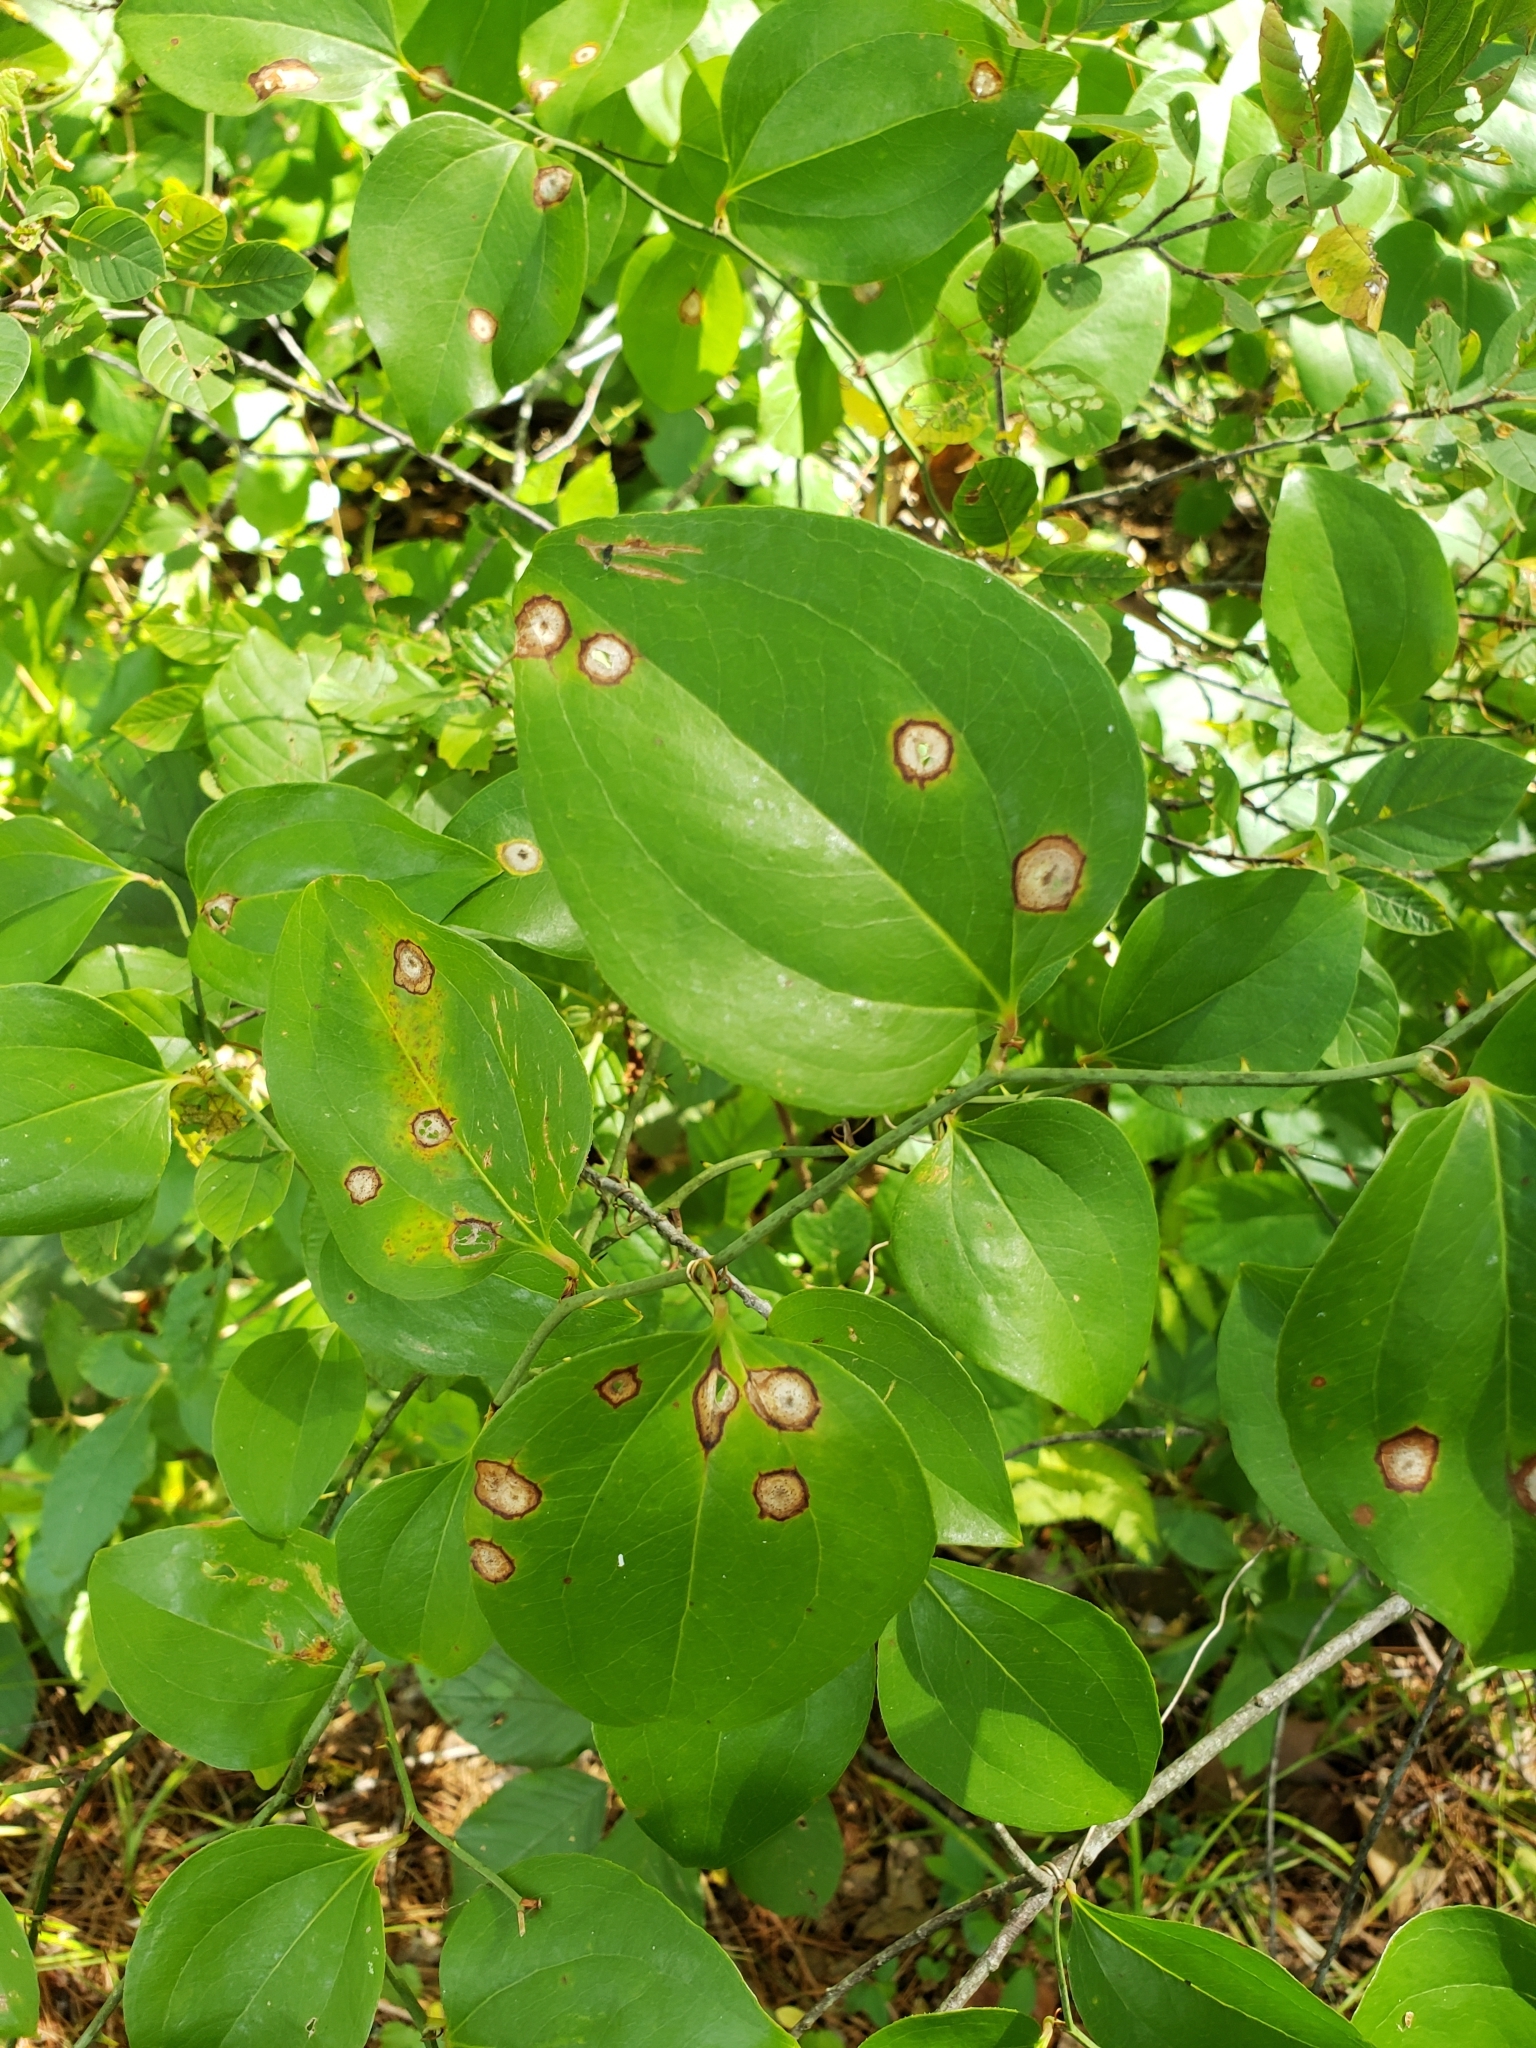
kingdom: Animalia
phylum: Arthropoda
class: Insecta
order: Diptera
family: Cecidomyiidae
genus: Meunieriella
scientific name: Meunieriella
